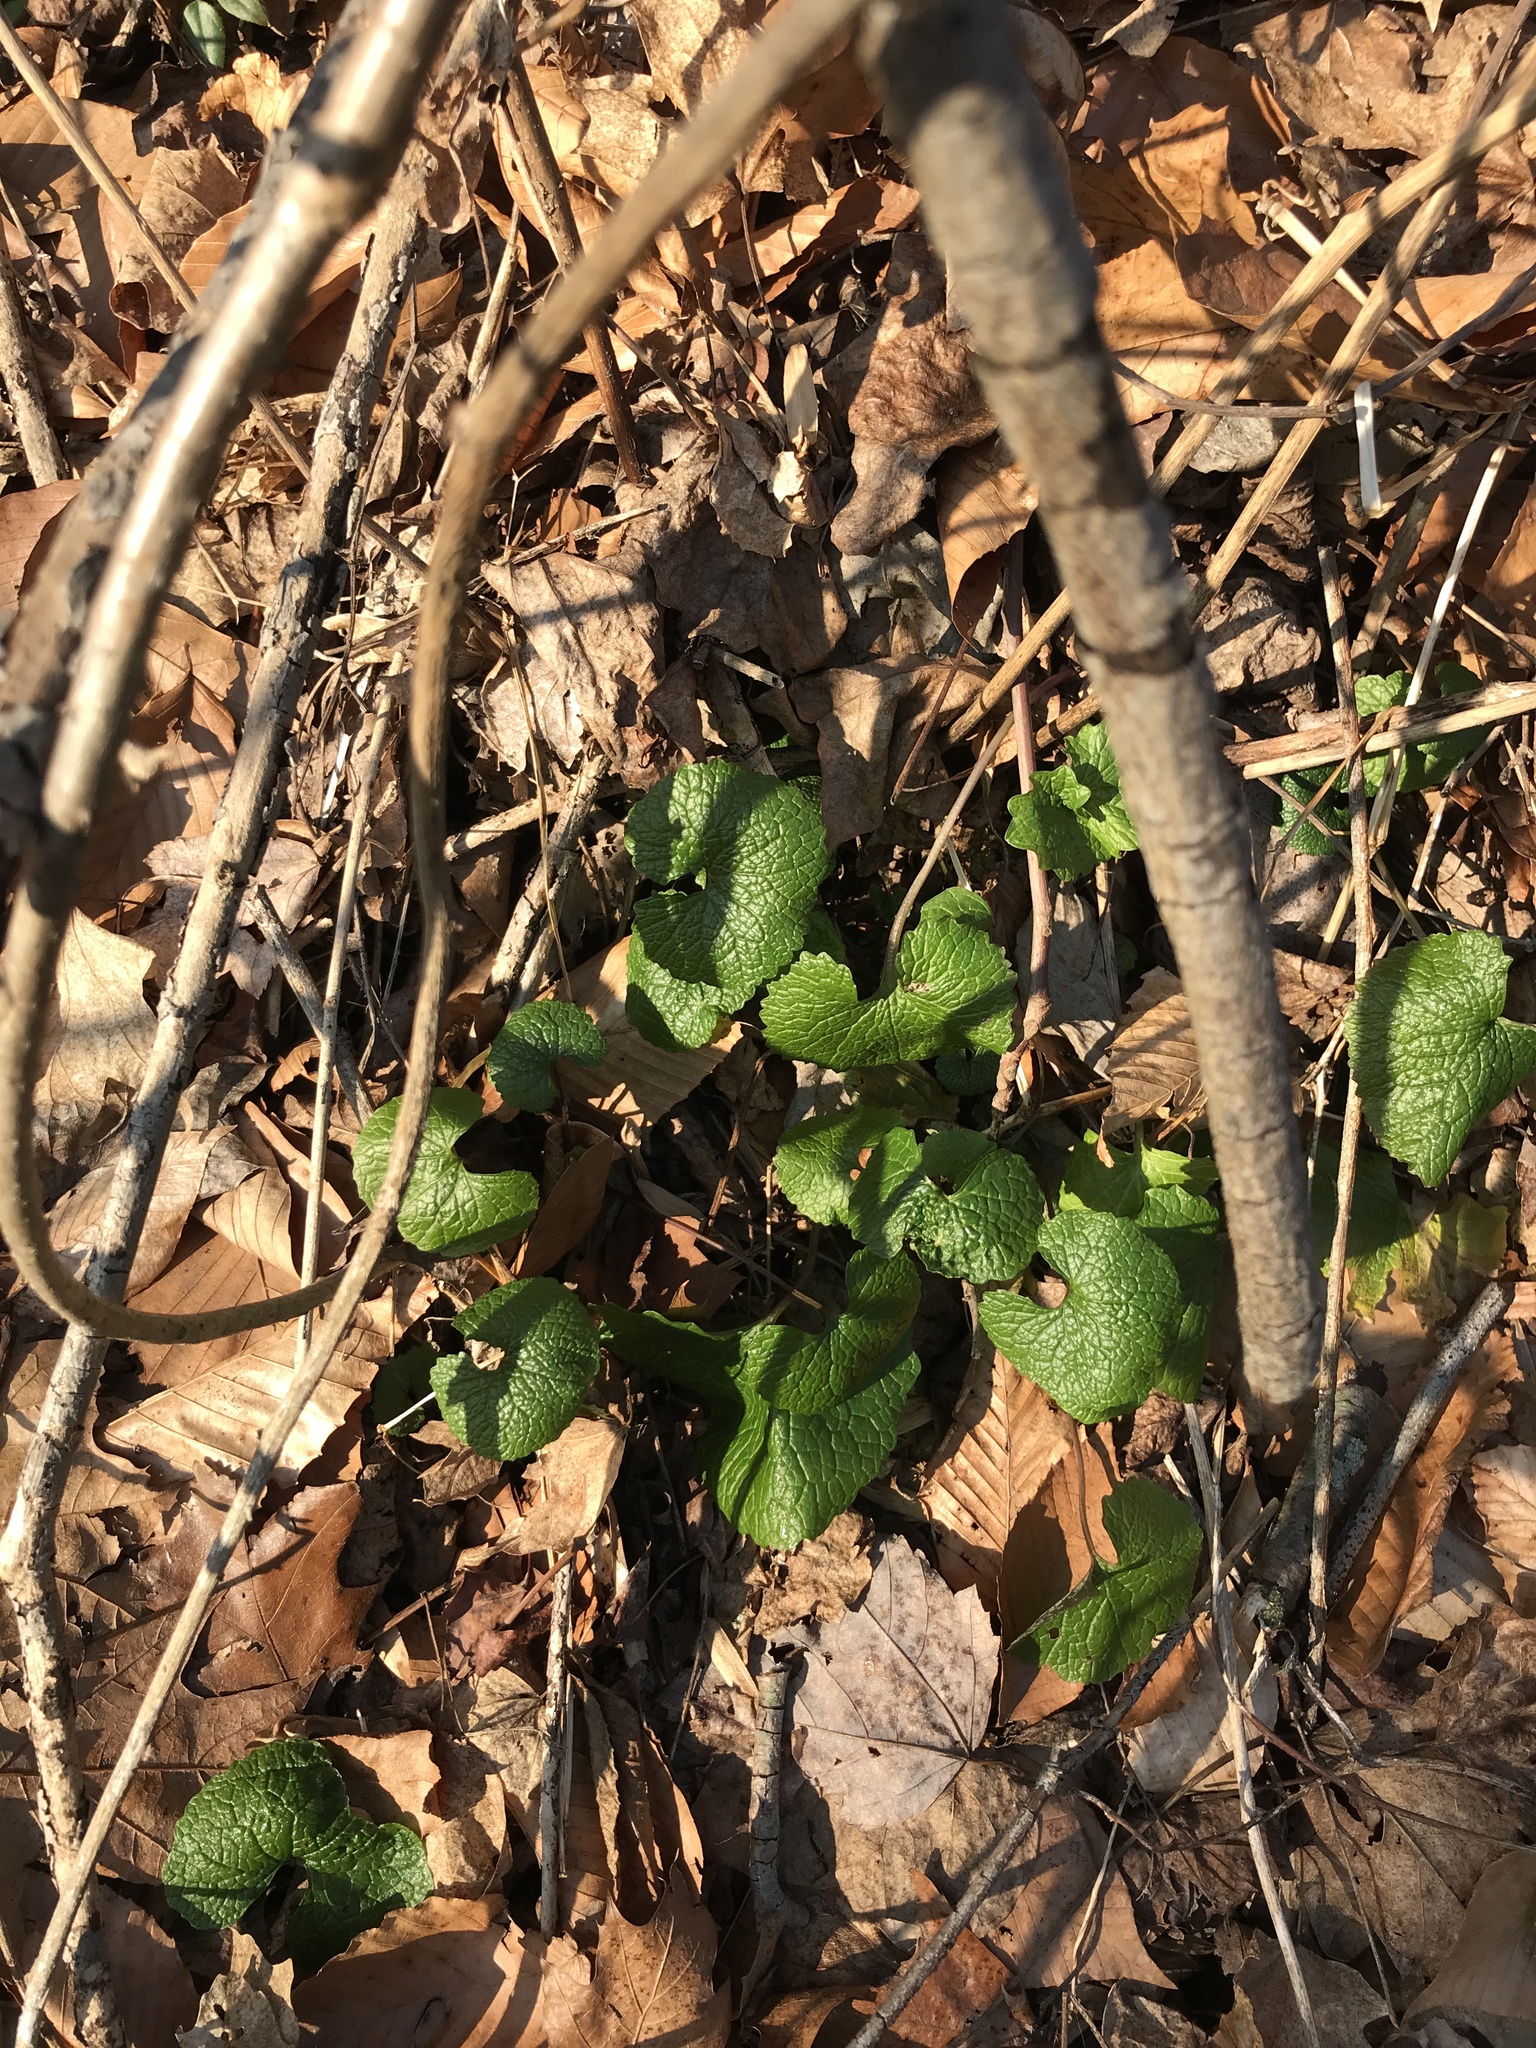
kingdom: Plantae
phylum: Tracheophyta
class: Magnoliopsida
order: Brassicales
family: Brassicaceae
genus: Alliaria
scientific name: Alliaria petiolata
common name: Garlic mustard
